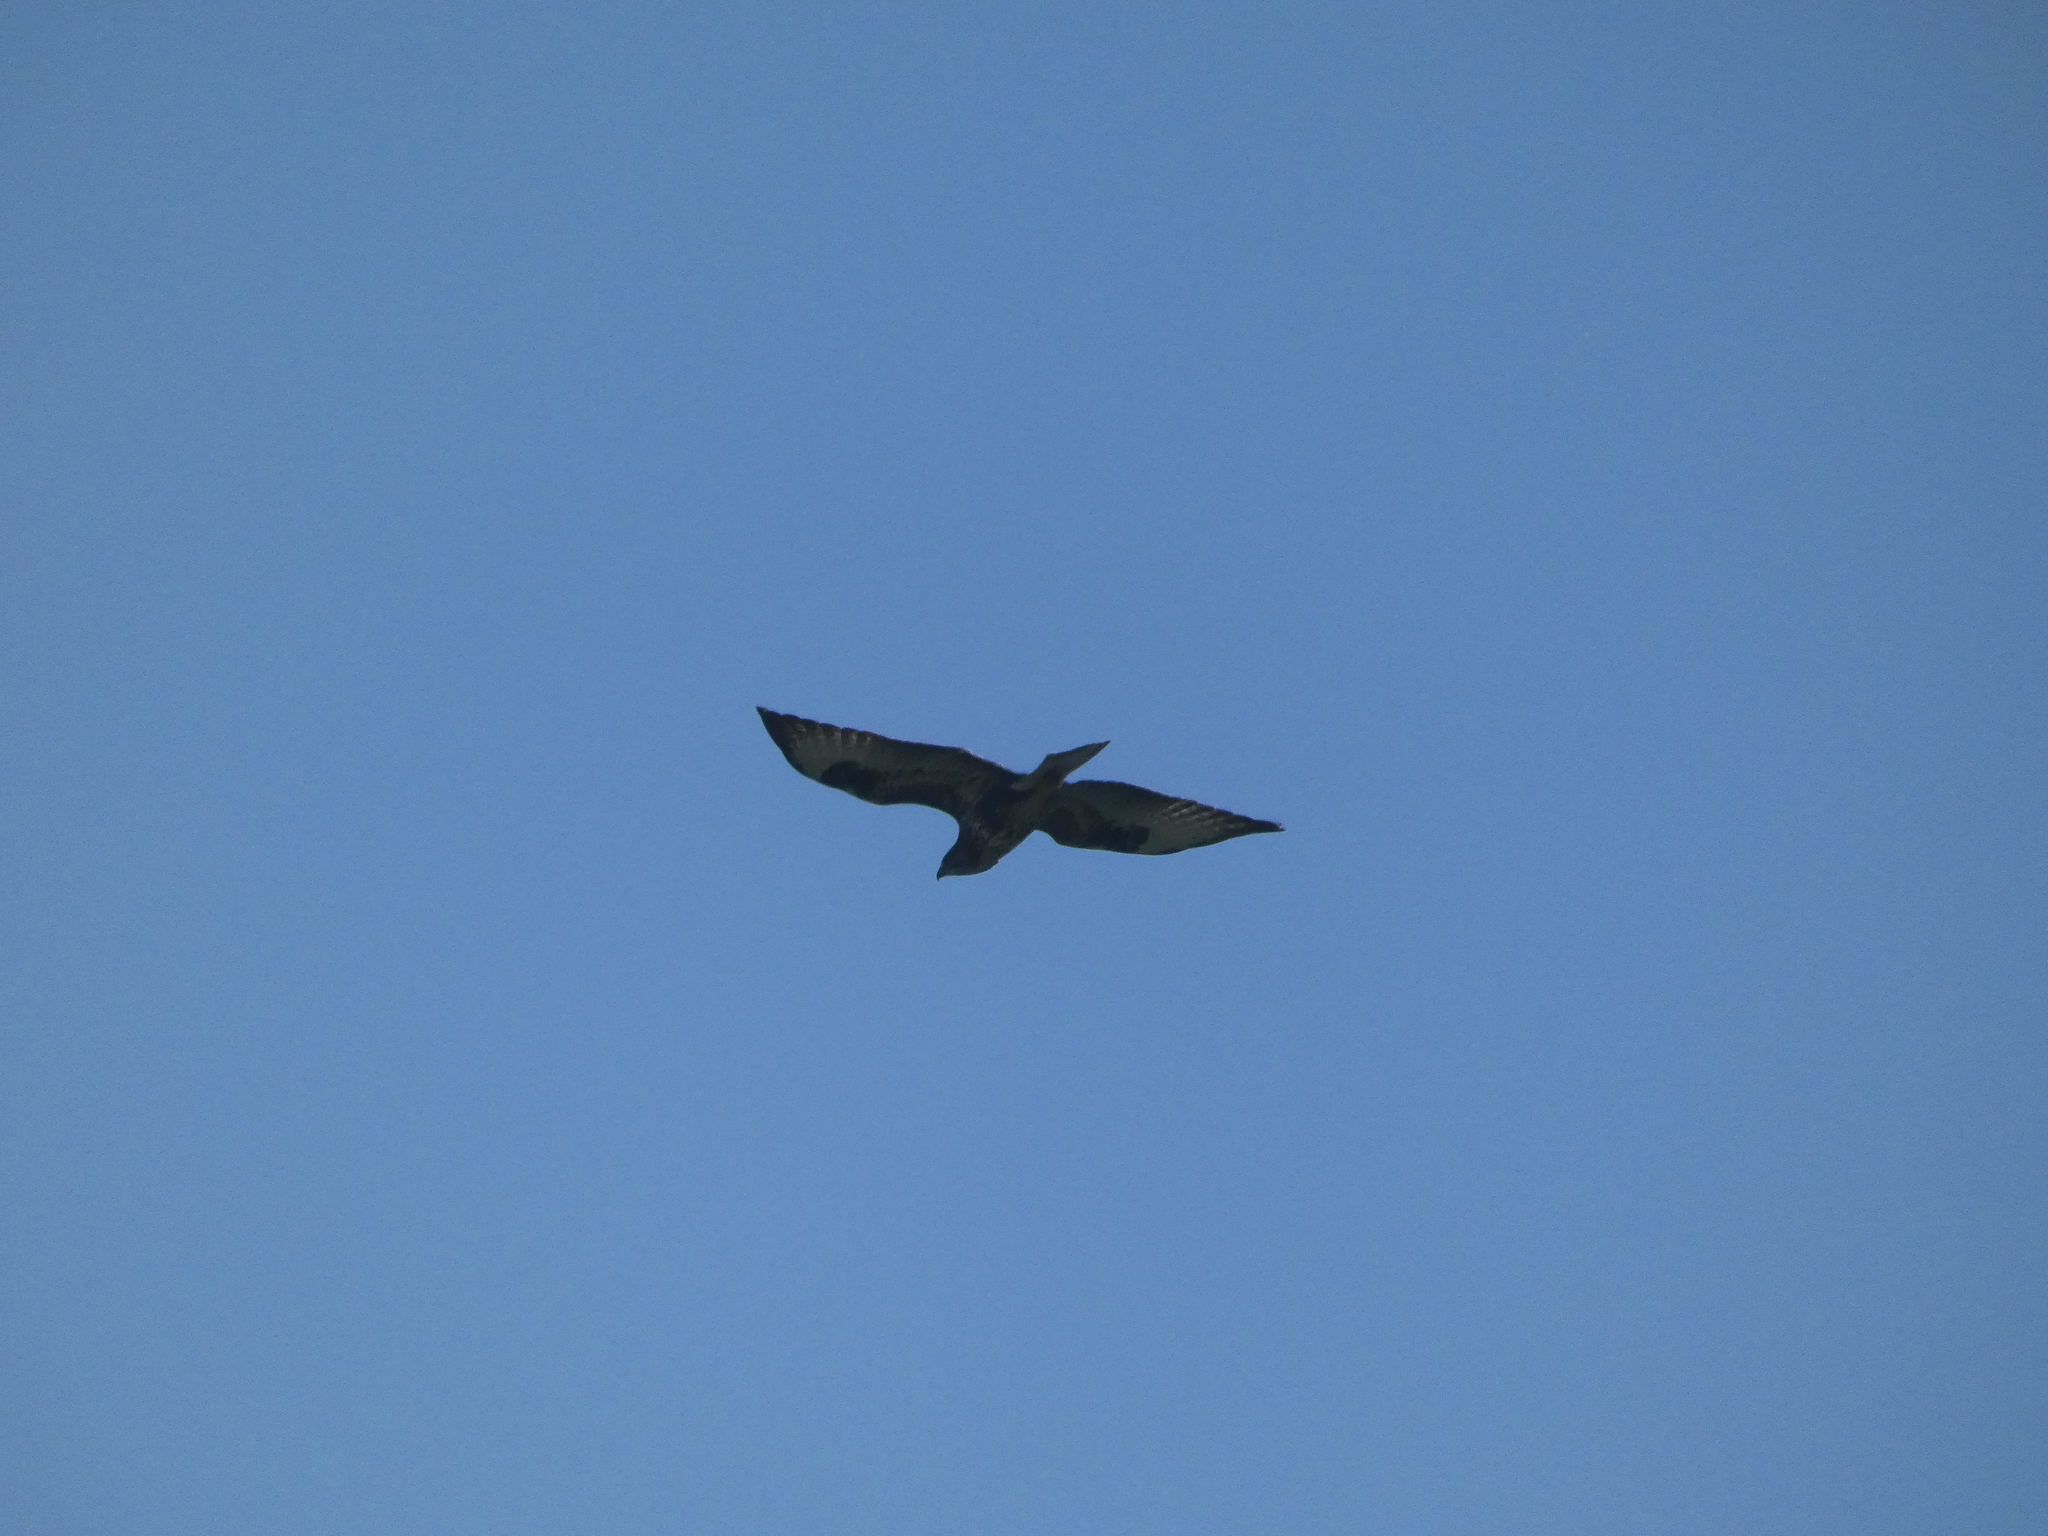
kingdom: Animalia
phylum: Chordata
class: Aves
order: Accipitriformes
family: Accipitridae
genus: Buteo
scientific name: Buteo buteo
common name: Common buzzard
